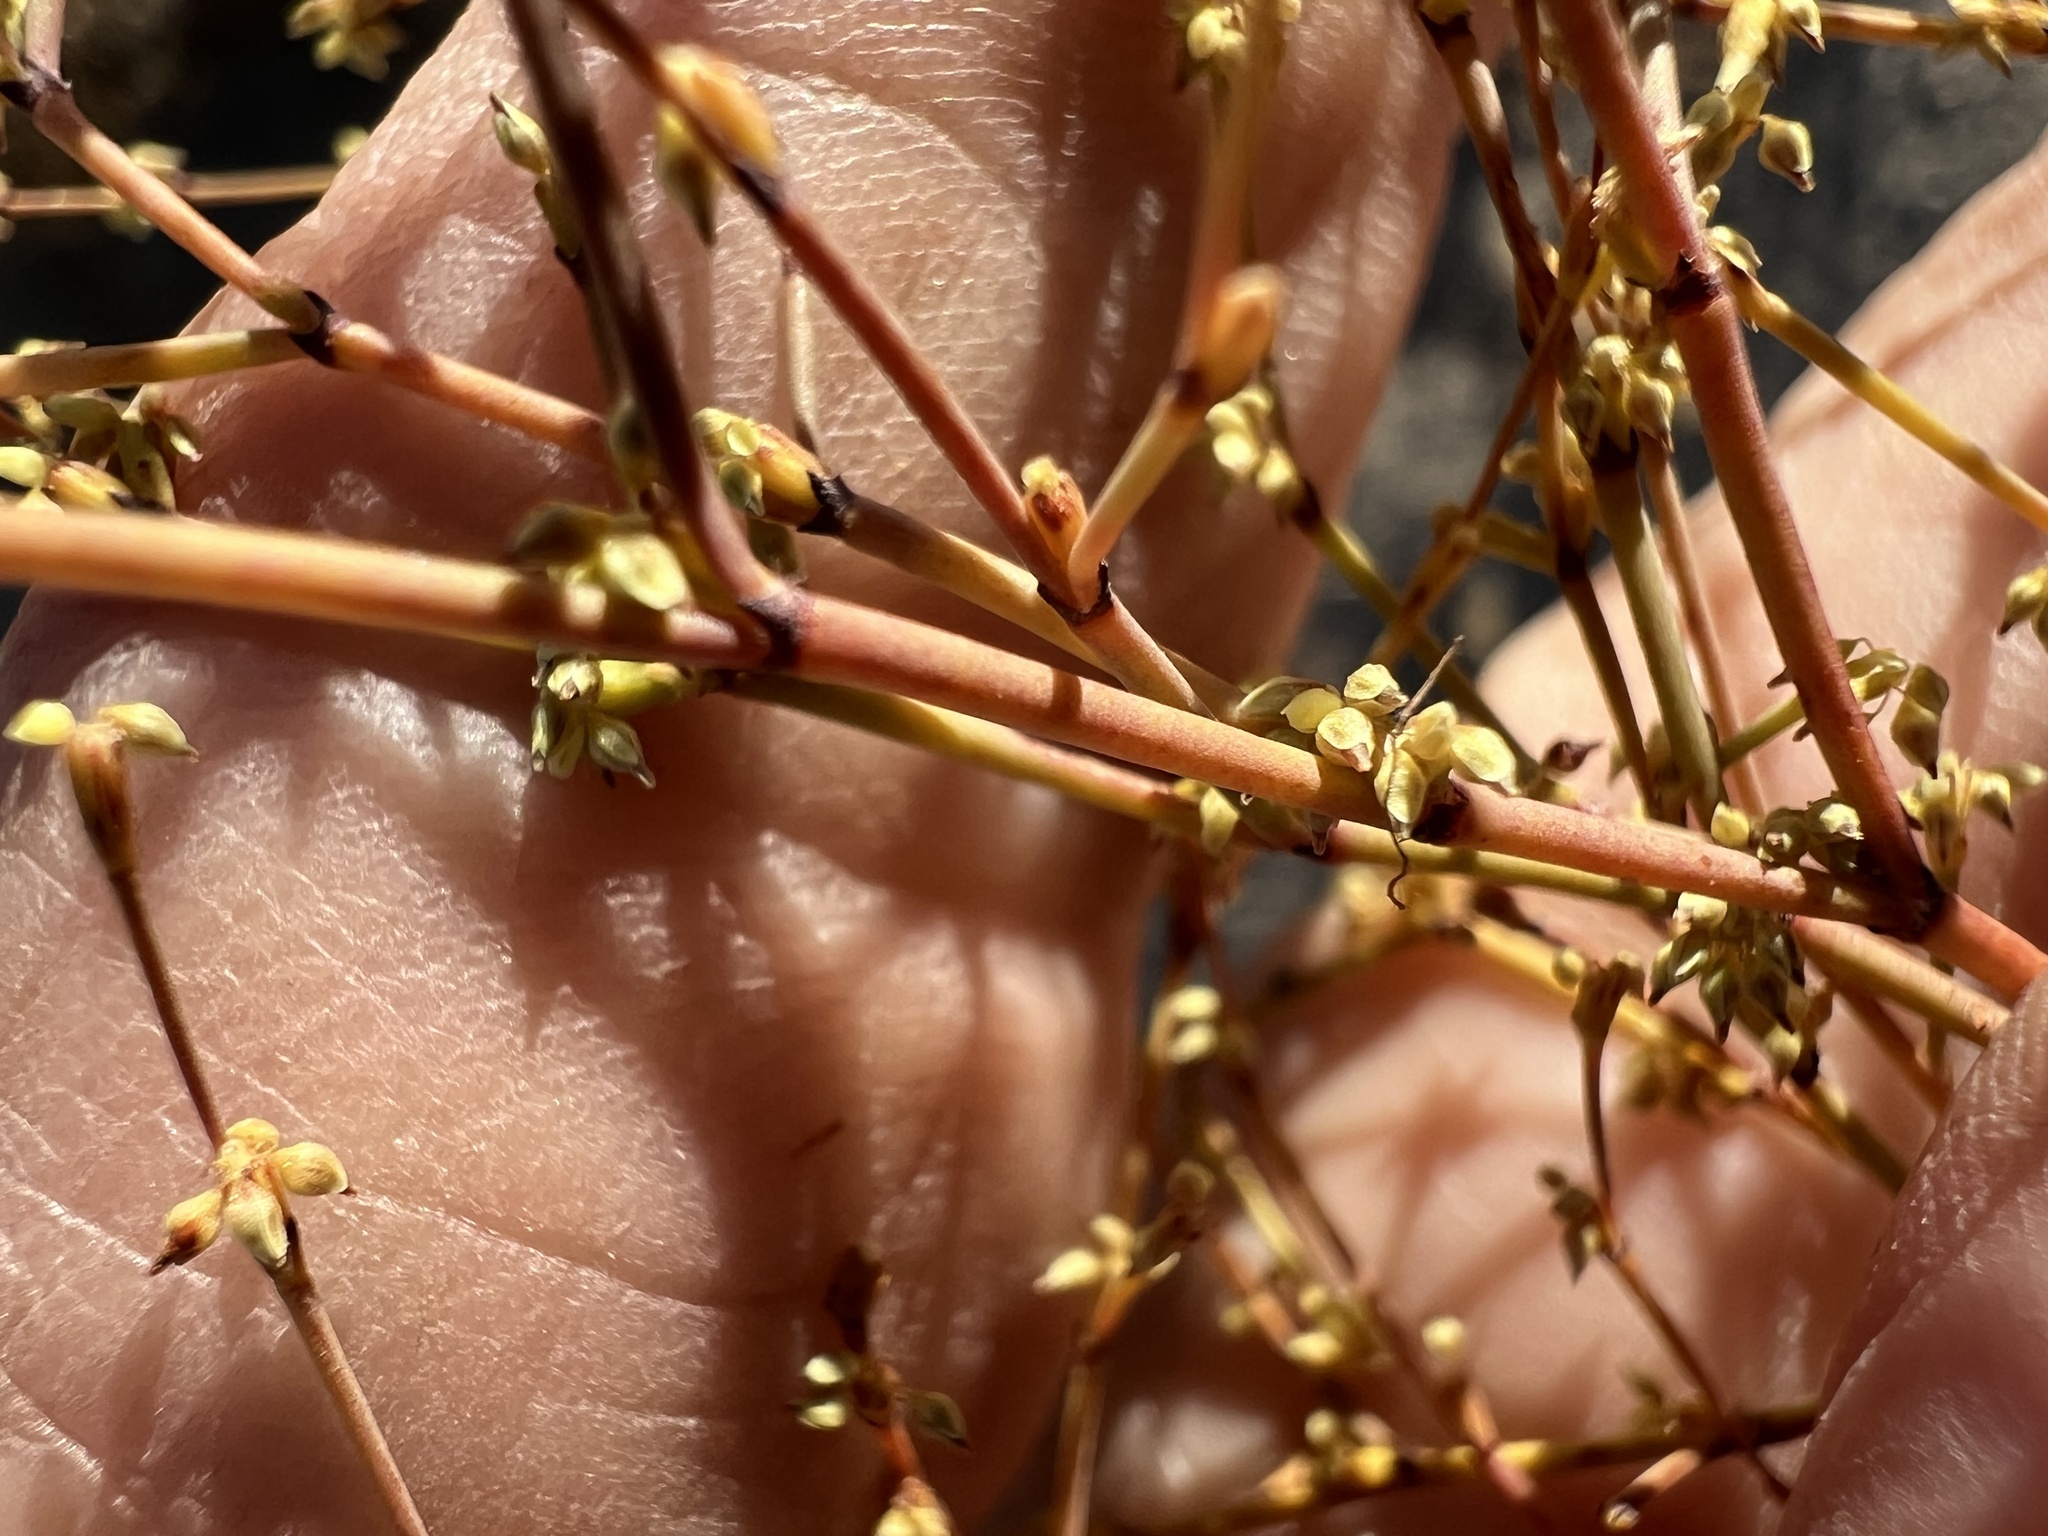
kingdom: Plantae
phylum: Tracheophyta
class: Magnoliopsida
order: Caryophyllales
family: Polygonaceae
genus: Eriogonum
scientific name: Eriogonum brachyanthum
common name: Short-flower wild buckwheat
